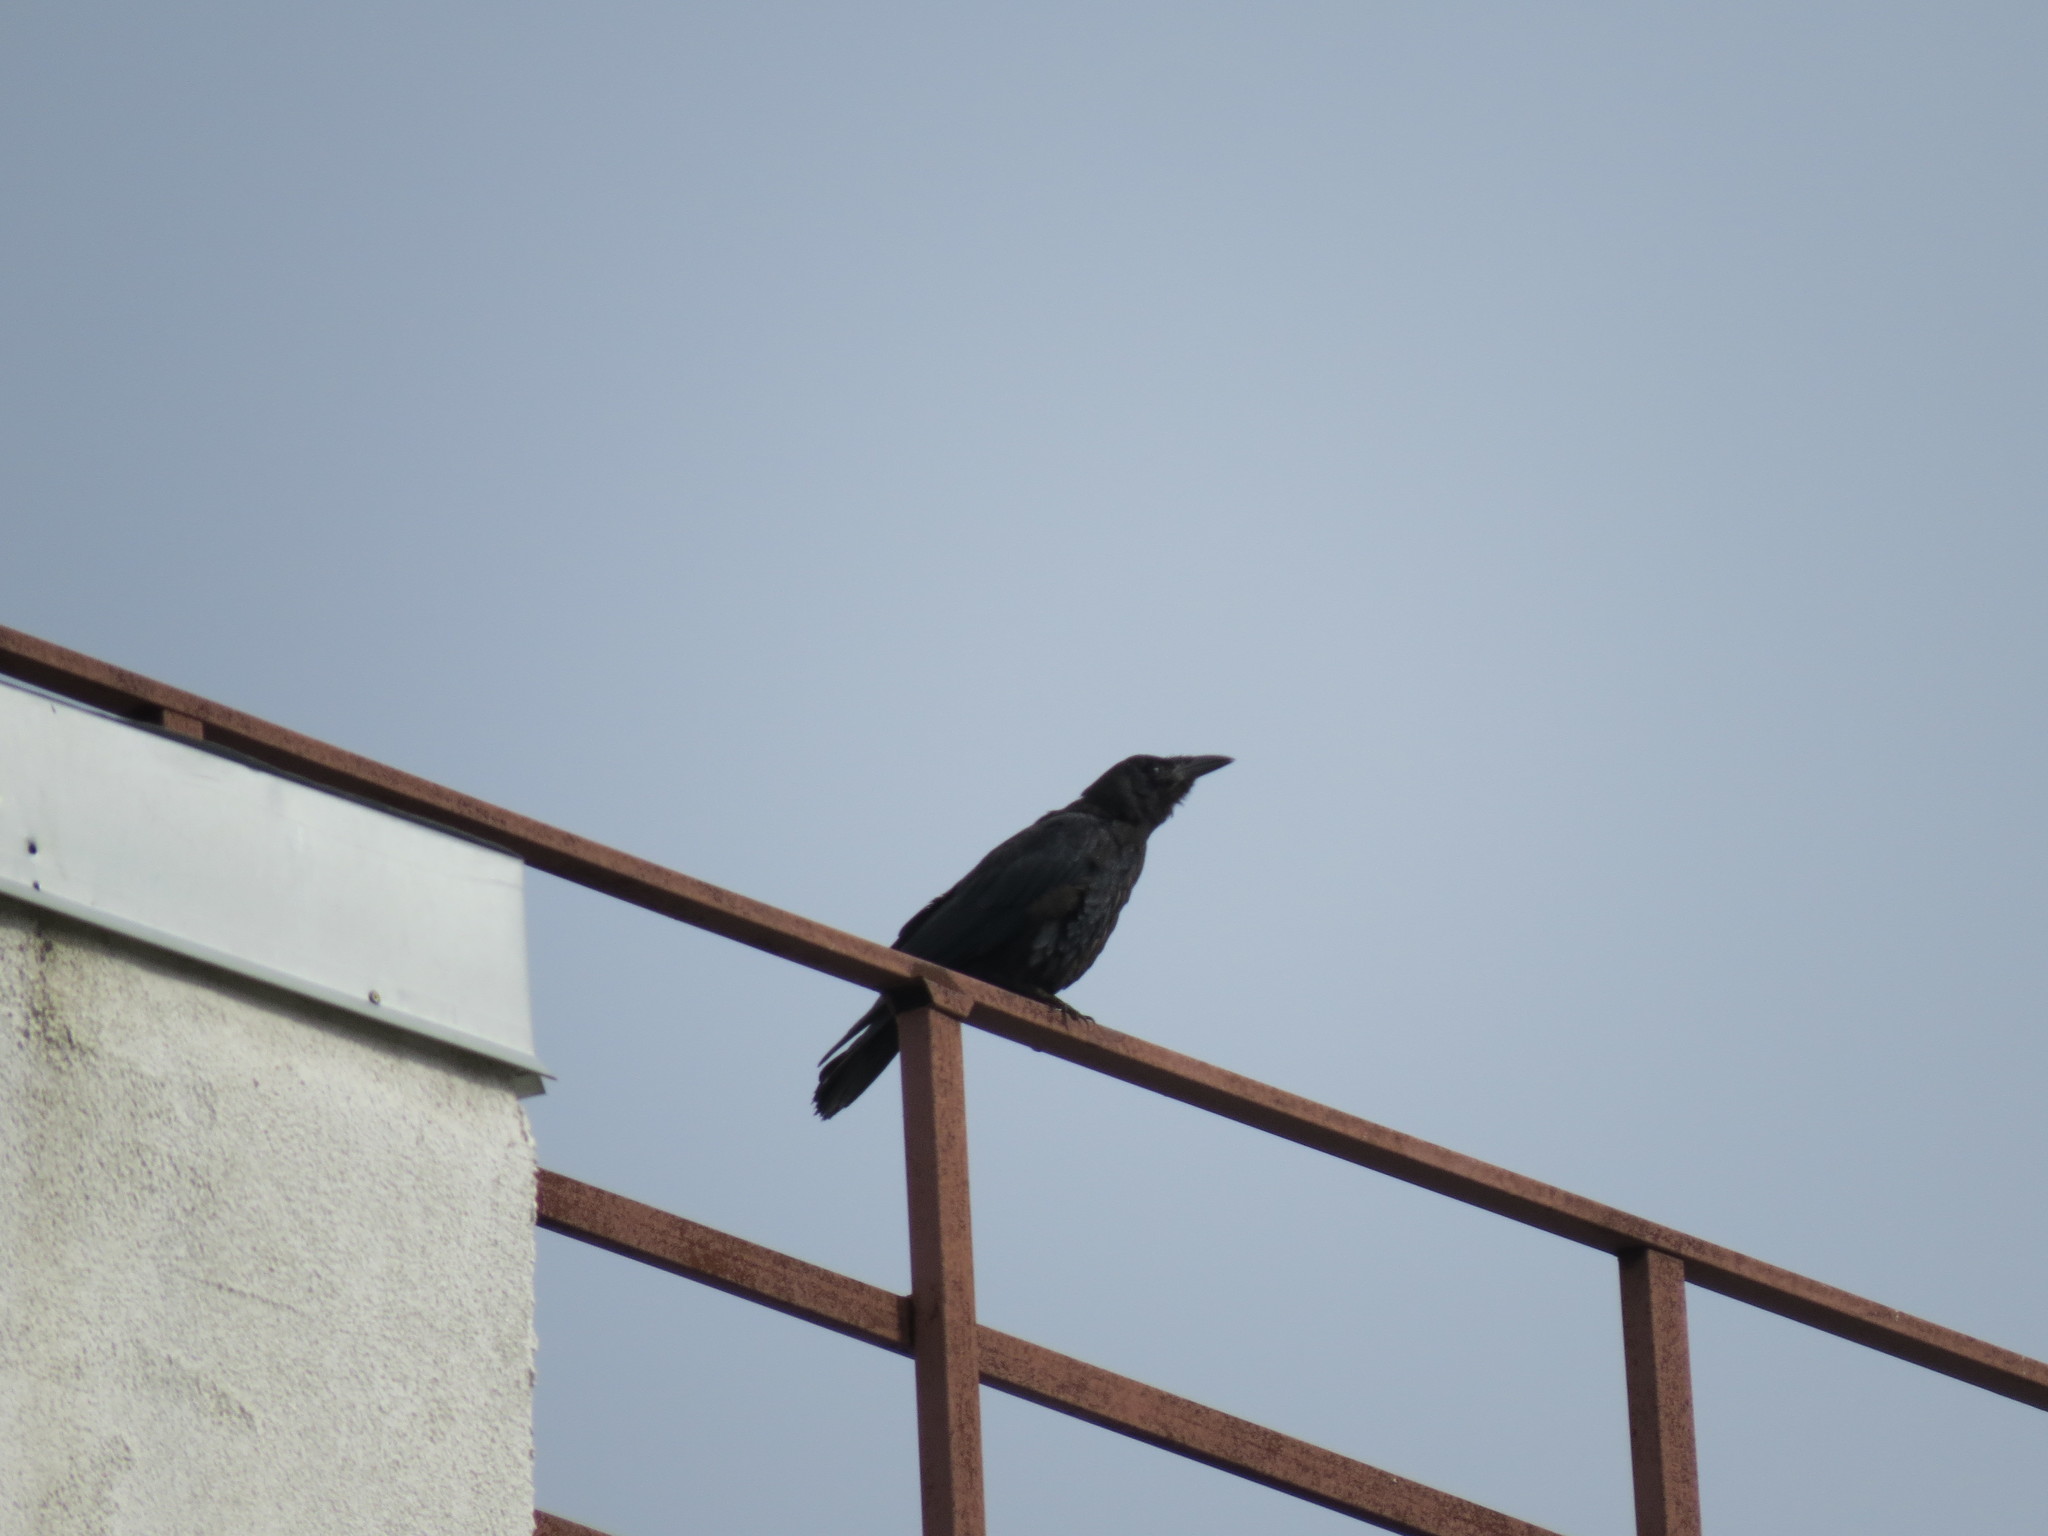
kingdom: Animalia
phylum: Chordata
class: Aves
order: Passeriformes
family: Corvidae
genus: Corvus
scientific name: Corvus frugilegus
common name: Rook
